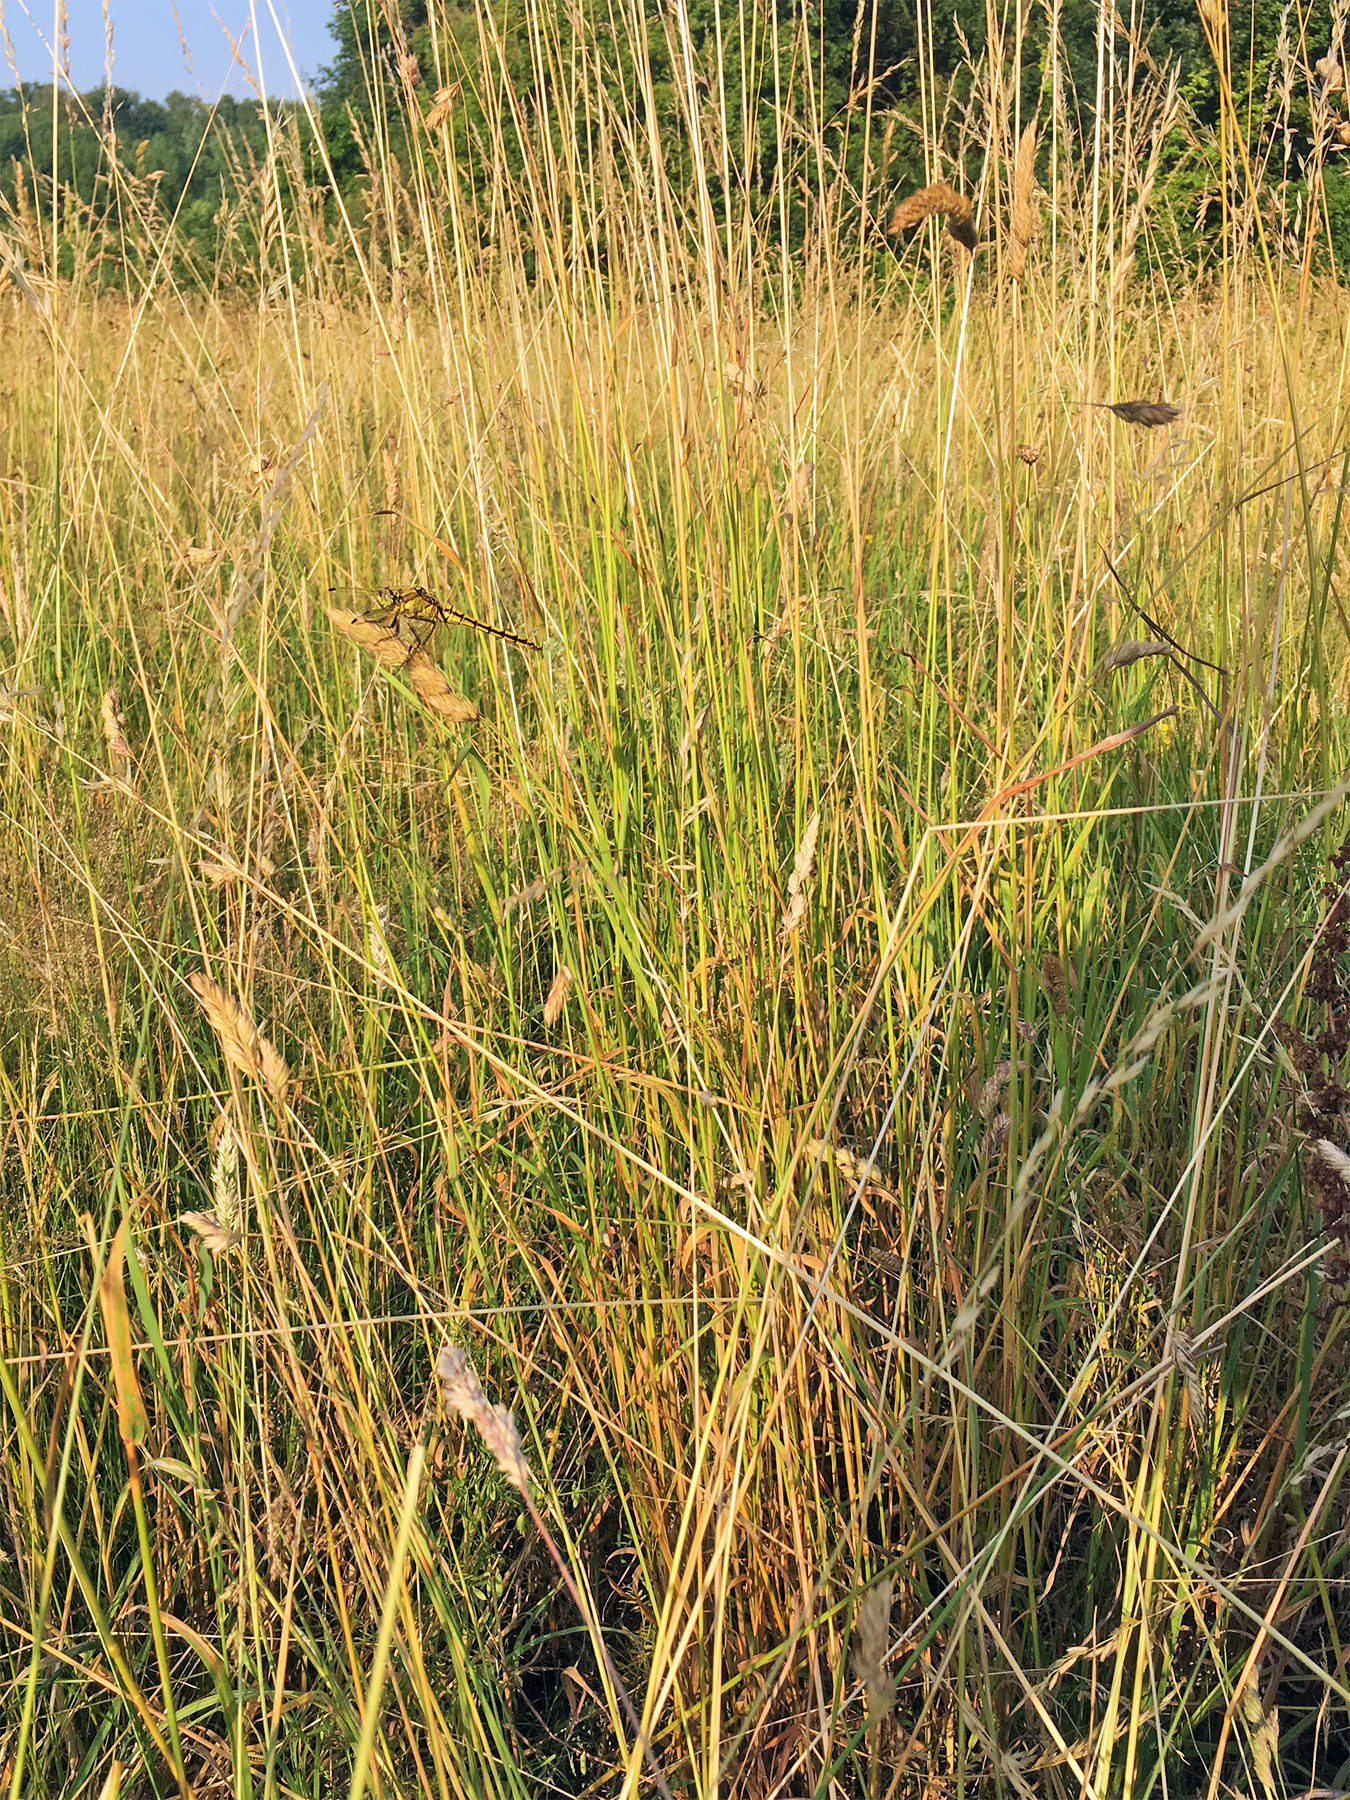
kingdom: Animalia
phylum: Arthropoda
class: Insecta
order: Odonata
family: Libellulidae
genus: Orthetrum
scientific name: Orthetrum cancellatum
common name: Black-tailed skimmer
